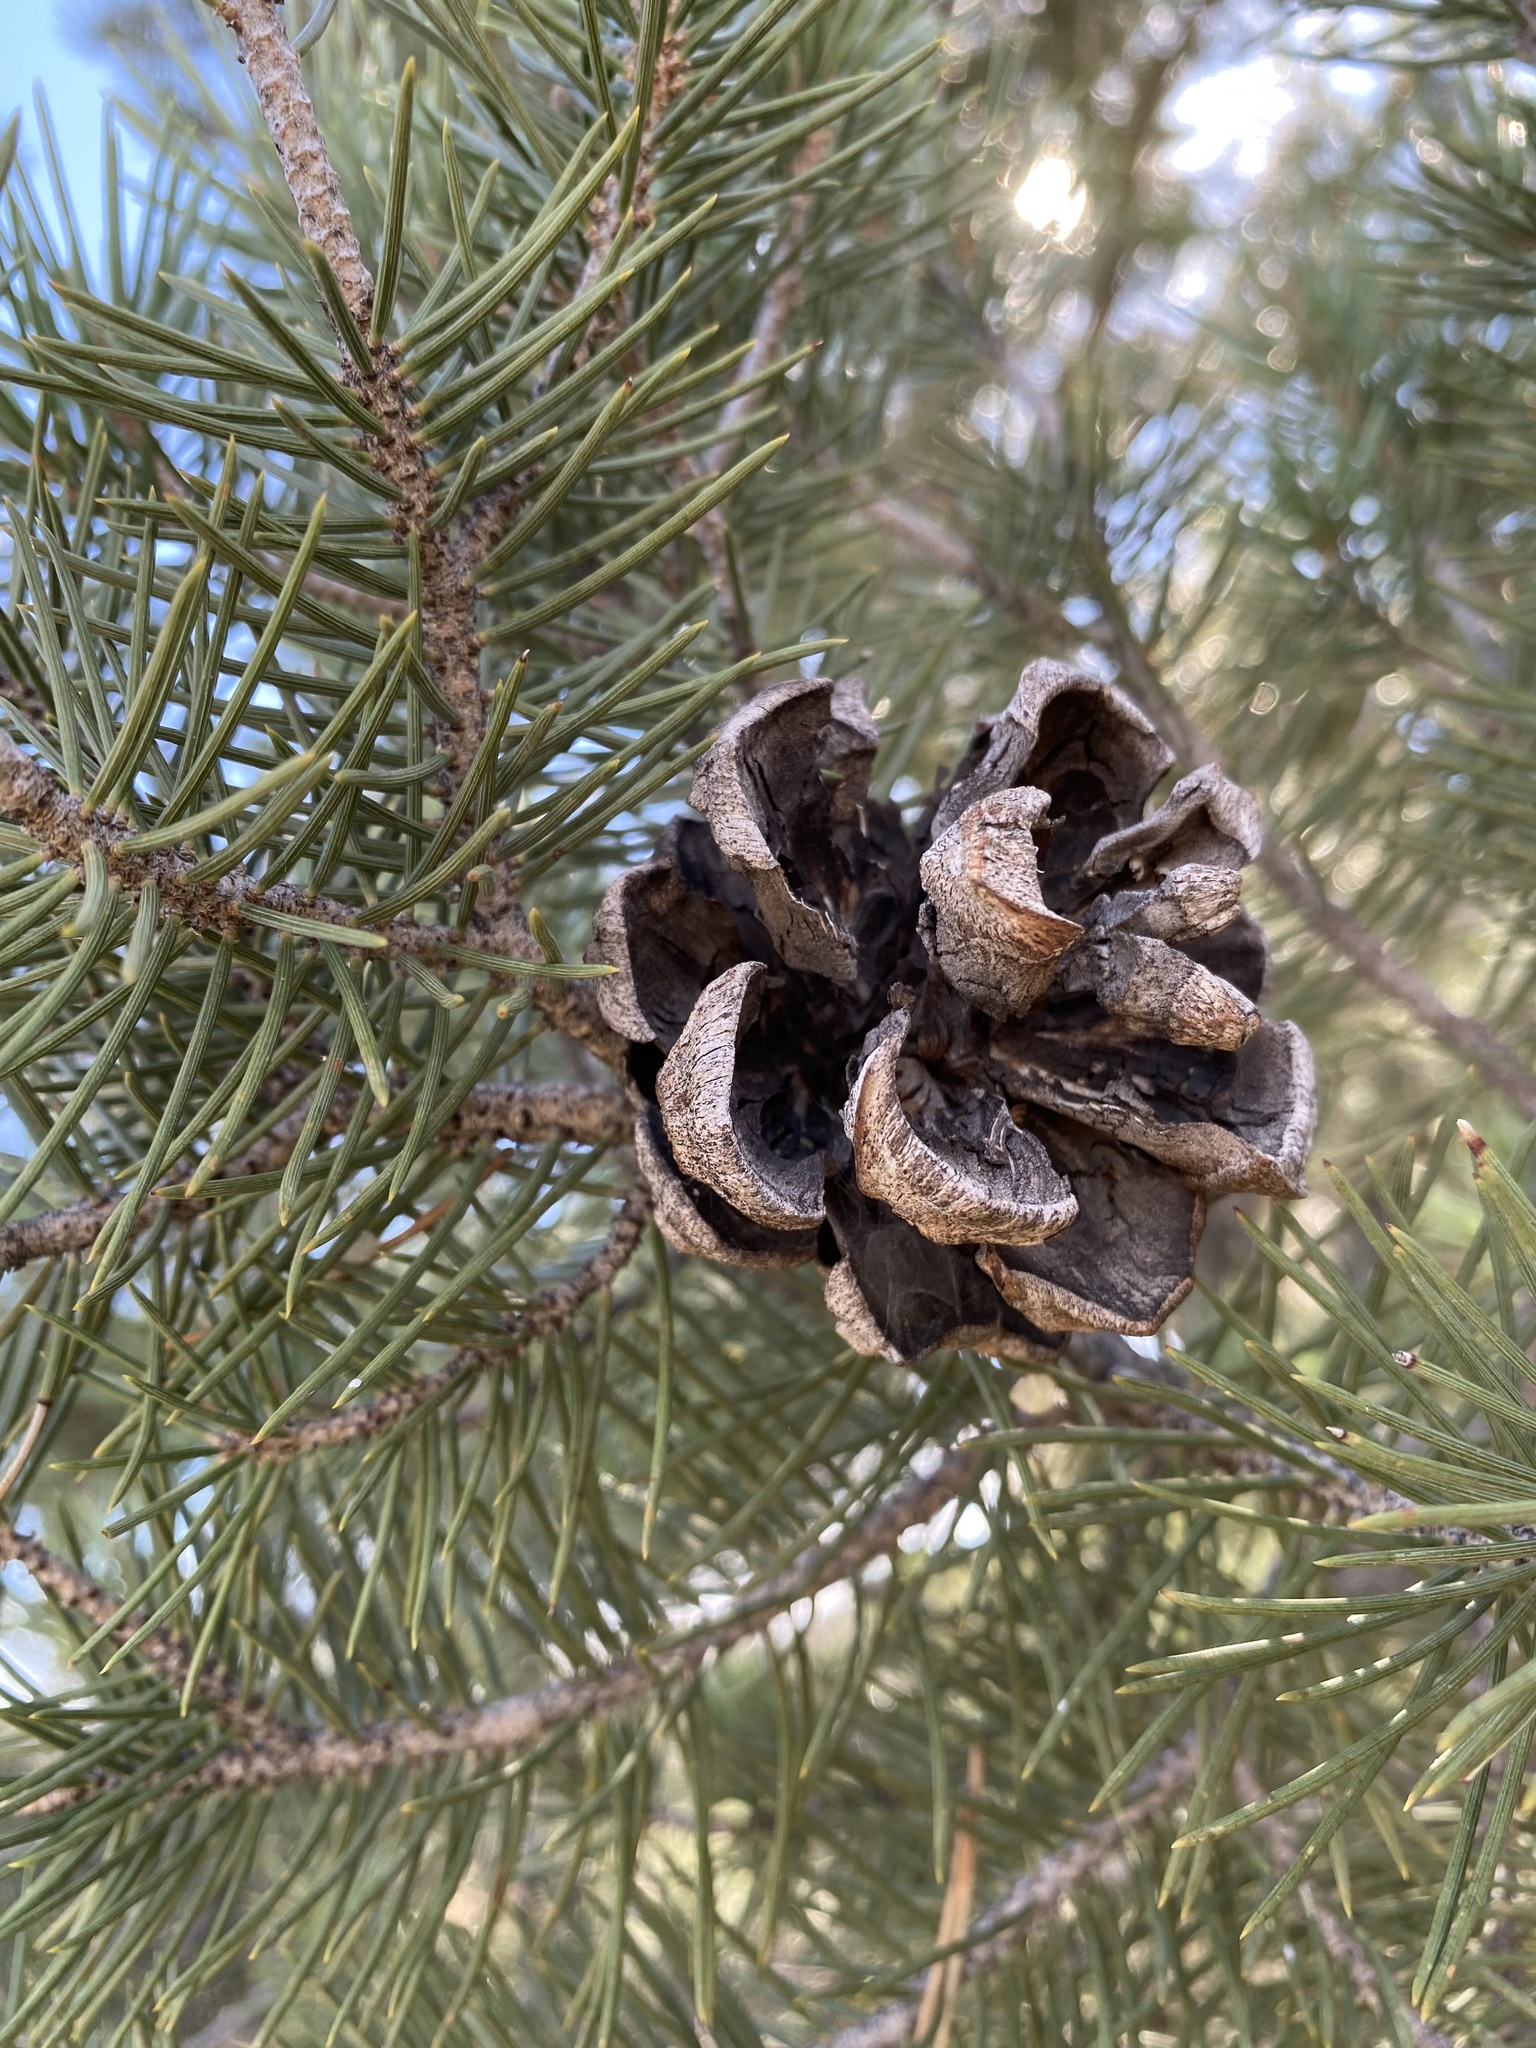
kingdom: Plantae
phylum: Tracheophyta
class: Pinopsida
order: Pinales
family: Pinaceae
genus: Pinus
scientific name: Pinus monophylla
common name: One-leaved nut pine
